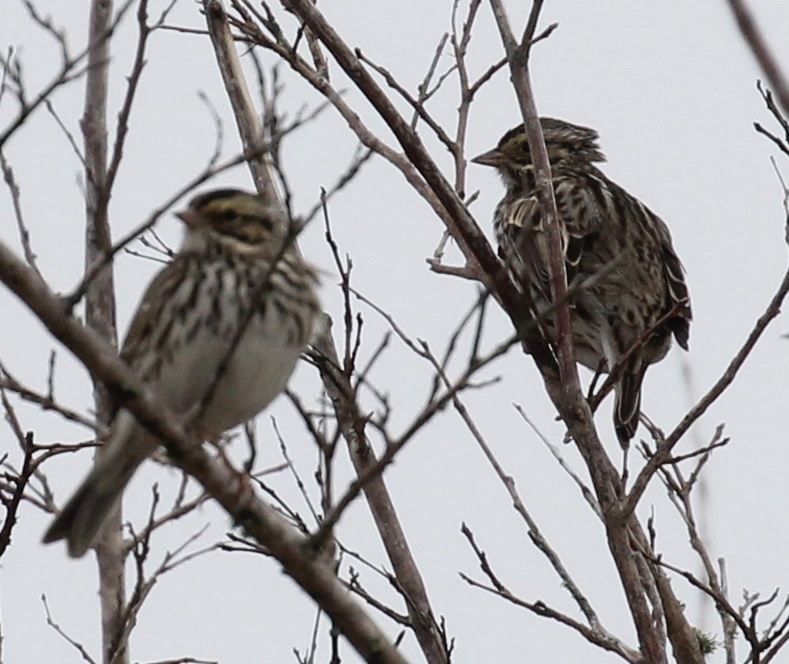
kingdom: Animalia
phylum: Chordata
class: Aves
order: Passeriformes
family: Passerellidae
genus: Passerculus
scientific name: Passerculus sandwichensis
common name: Savannah sparrow
